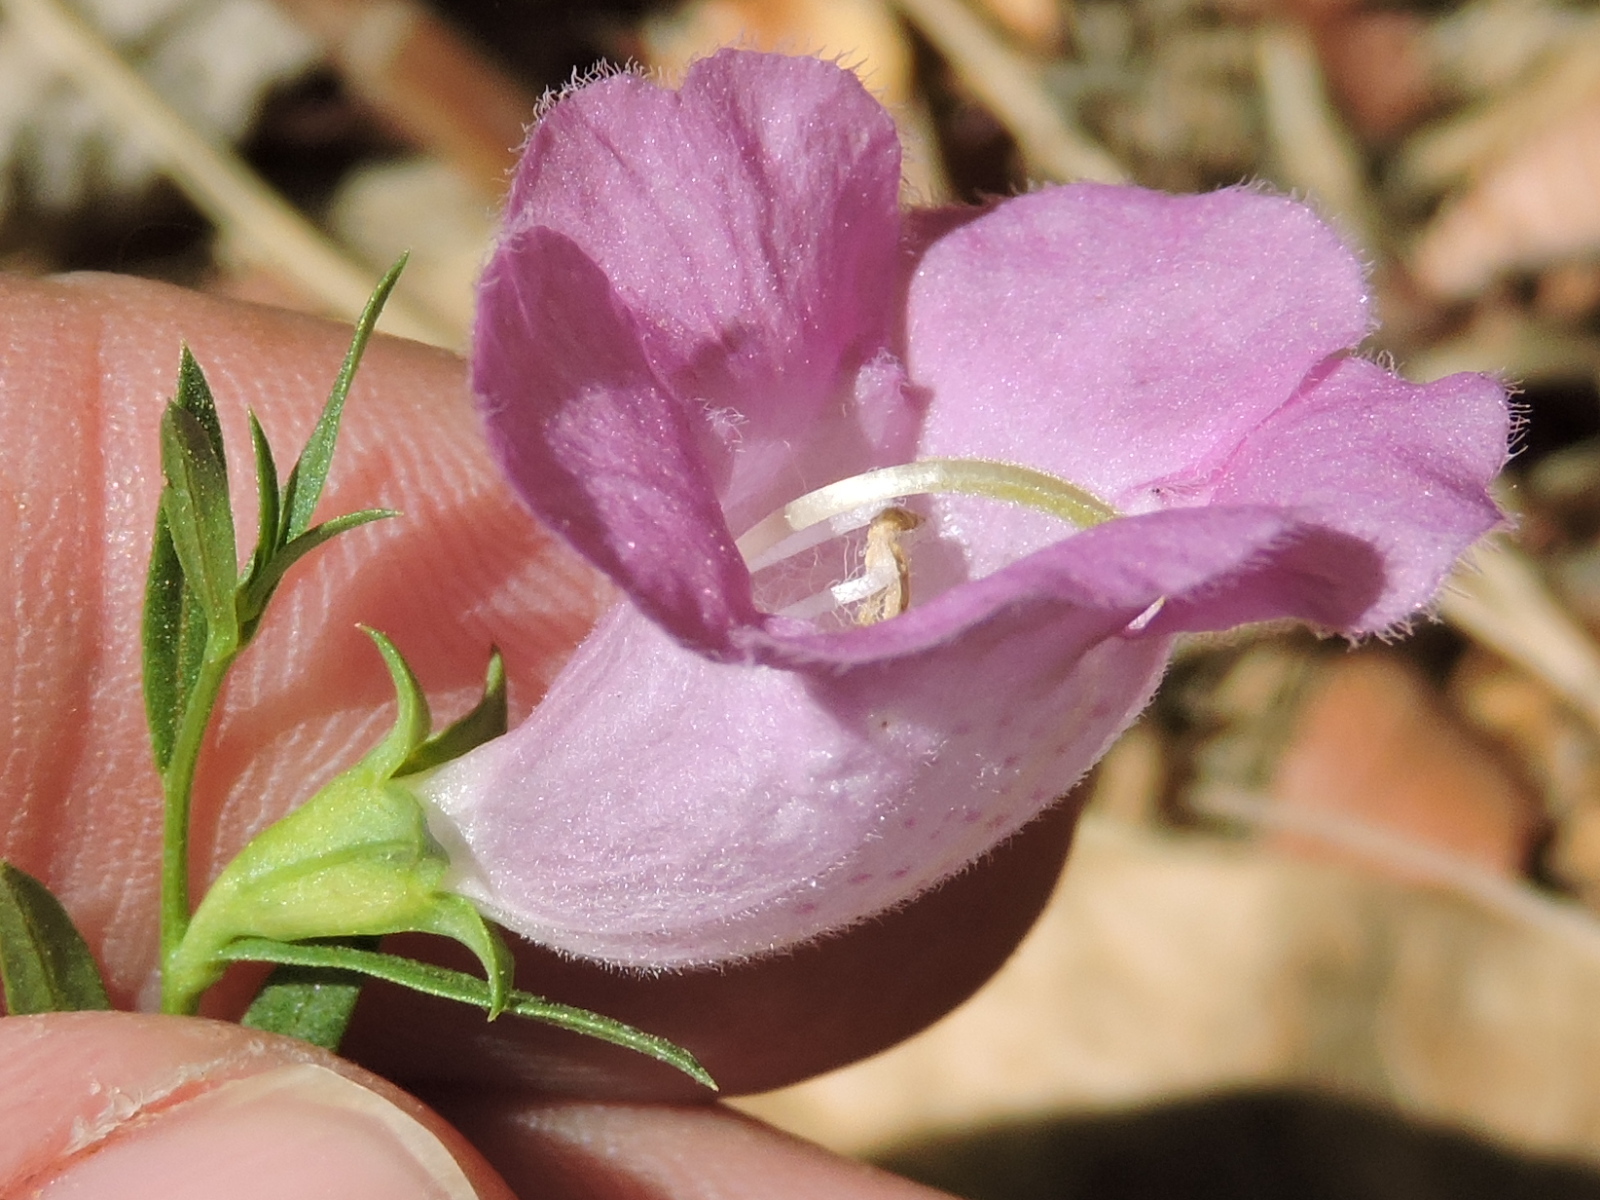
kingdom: Plantae
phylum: Tracheophyta
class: Magnoliopsida
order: Lamiales
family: Orobanchaceae
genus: Agalinis
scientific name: Agalinis heterophylla
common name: Prairie agalinis
